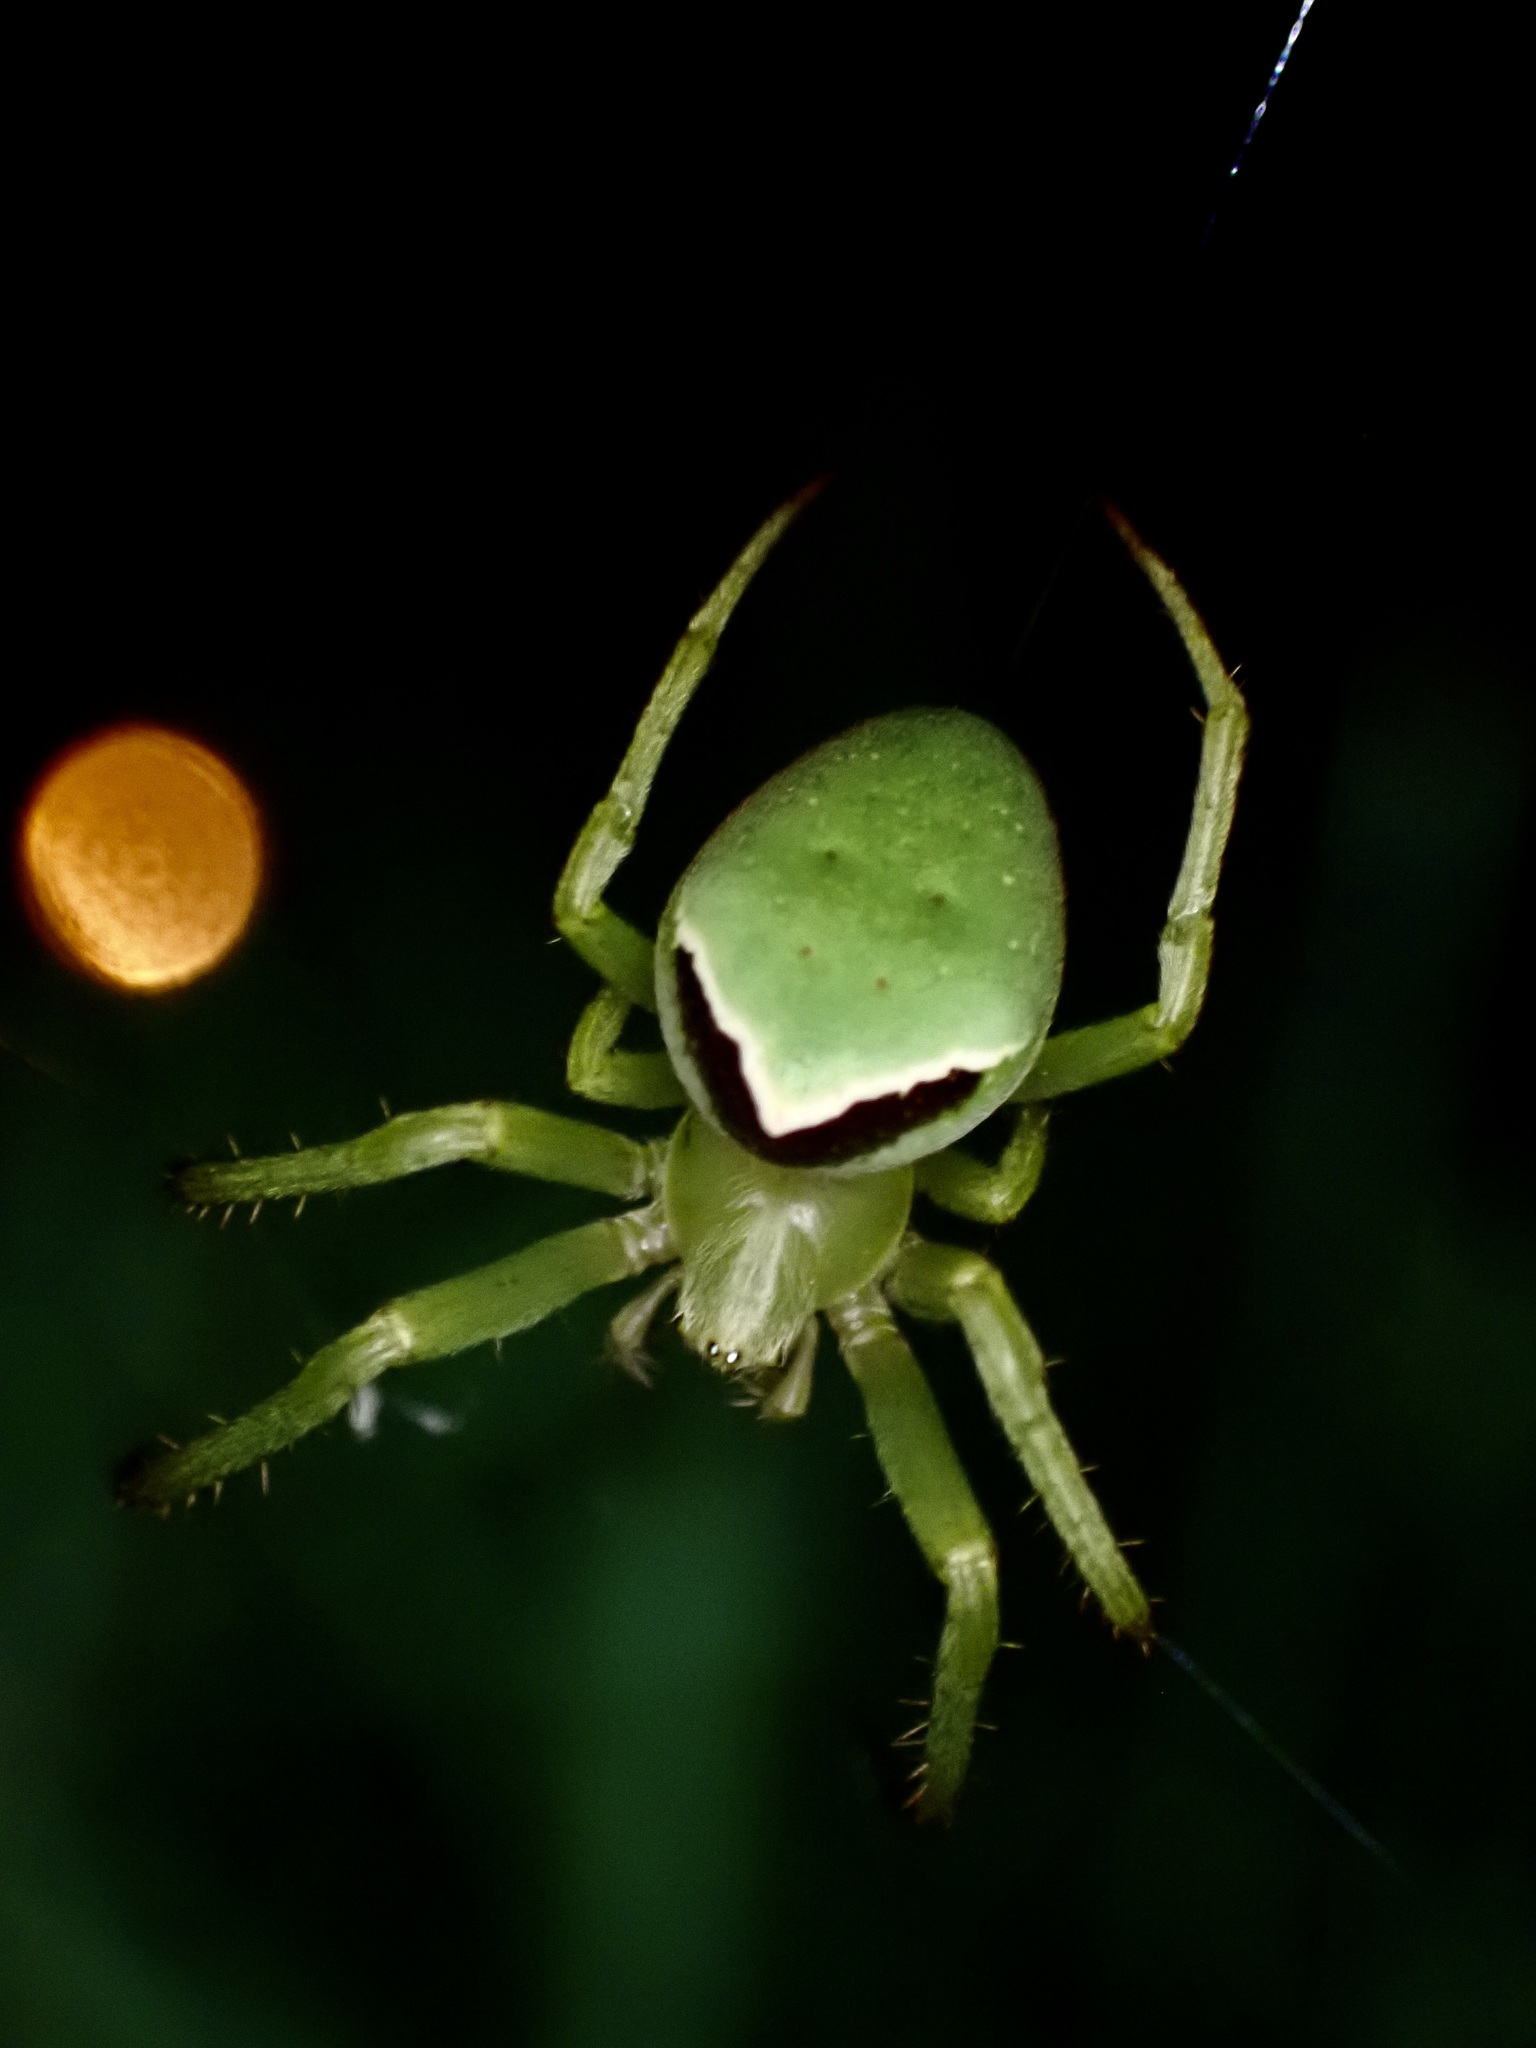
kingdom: Animalia
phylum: Arthropoda
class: Arachnida
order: Araneae
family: Araneidae
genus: Colaranea
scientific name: Colaranea viriditas
